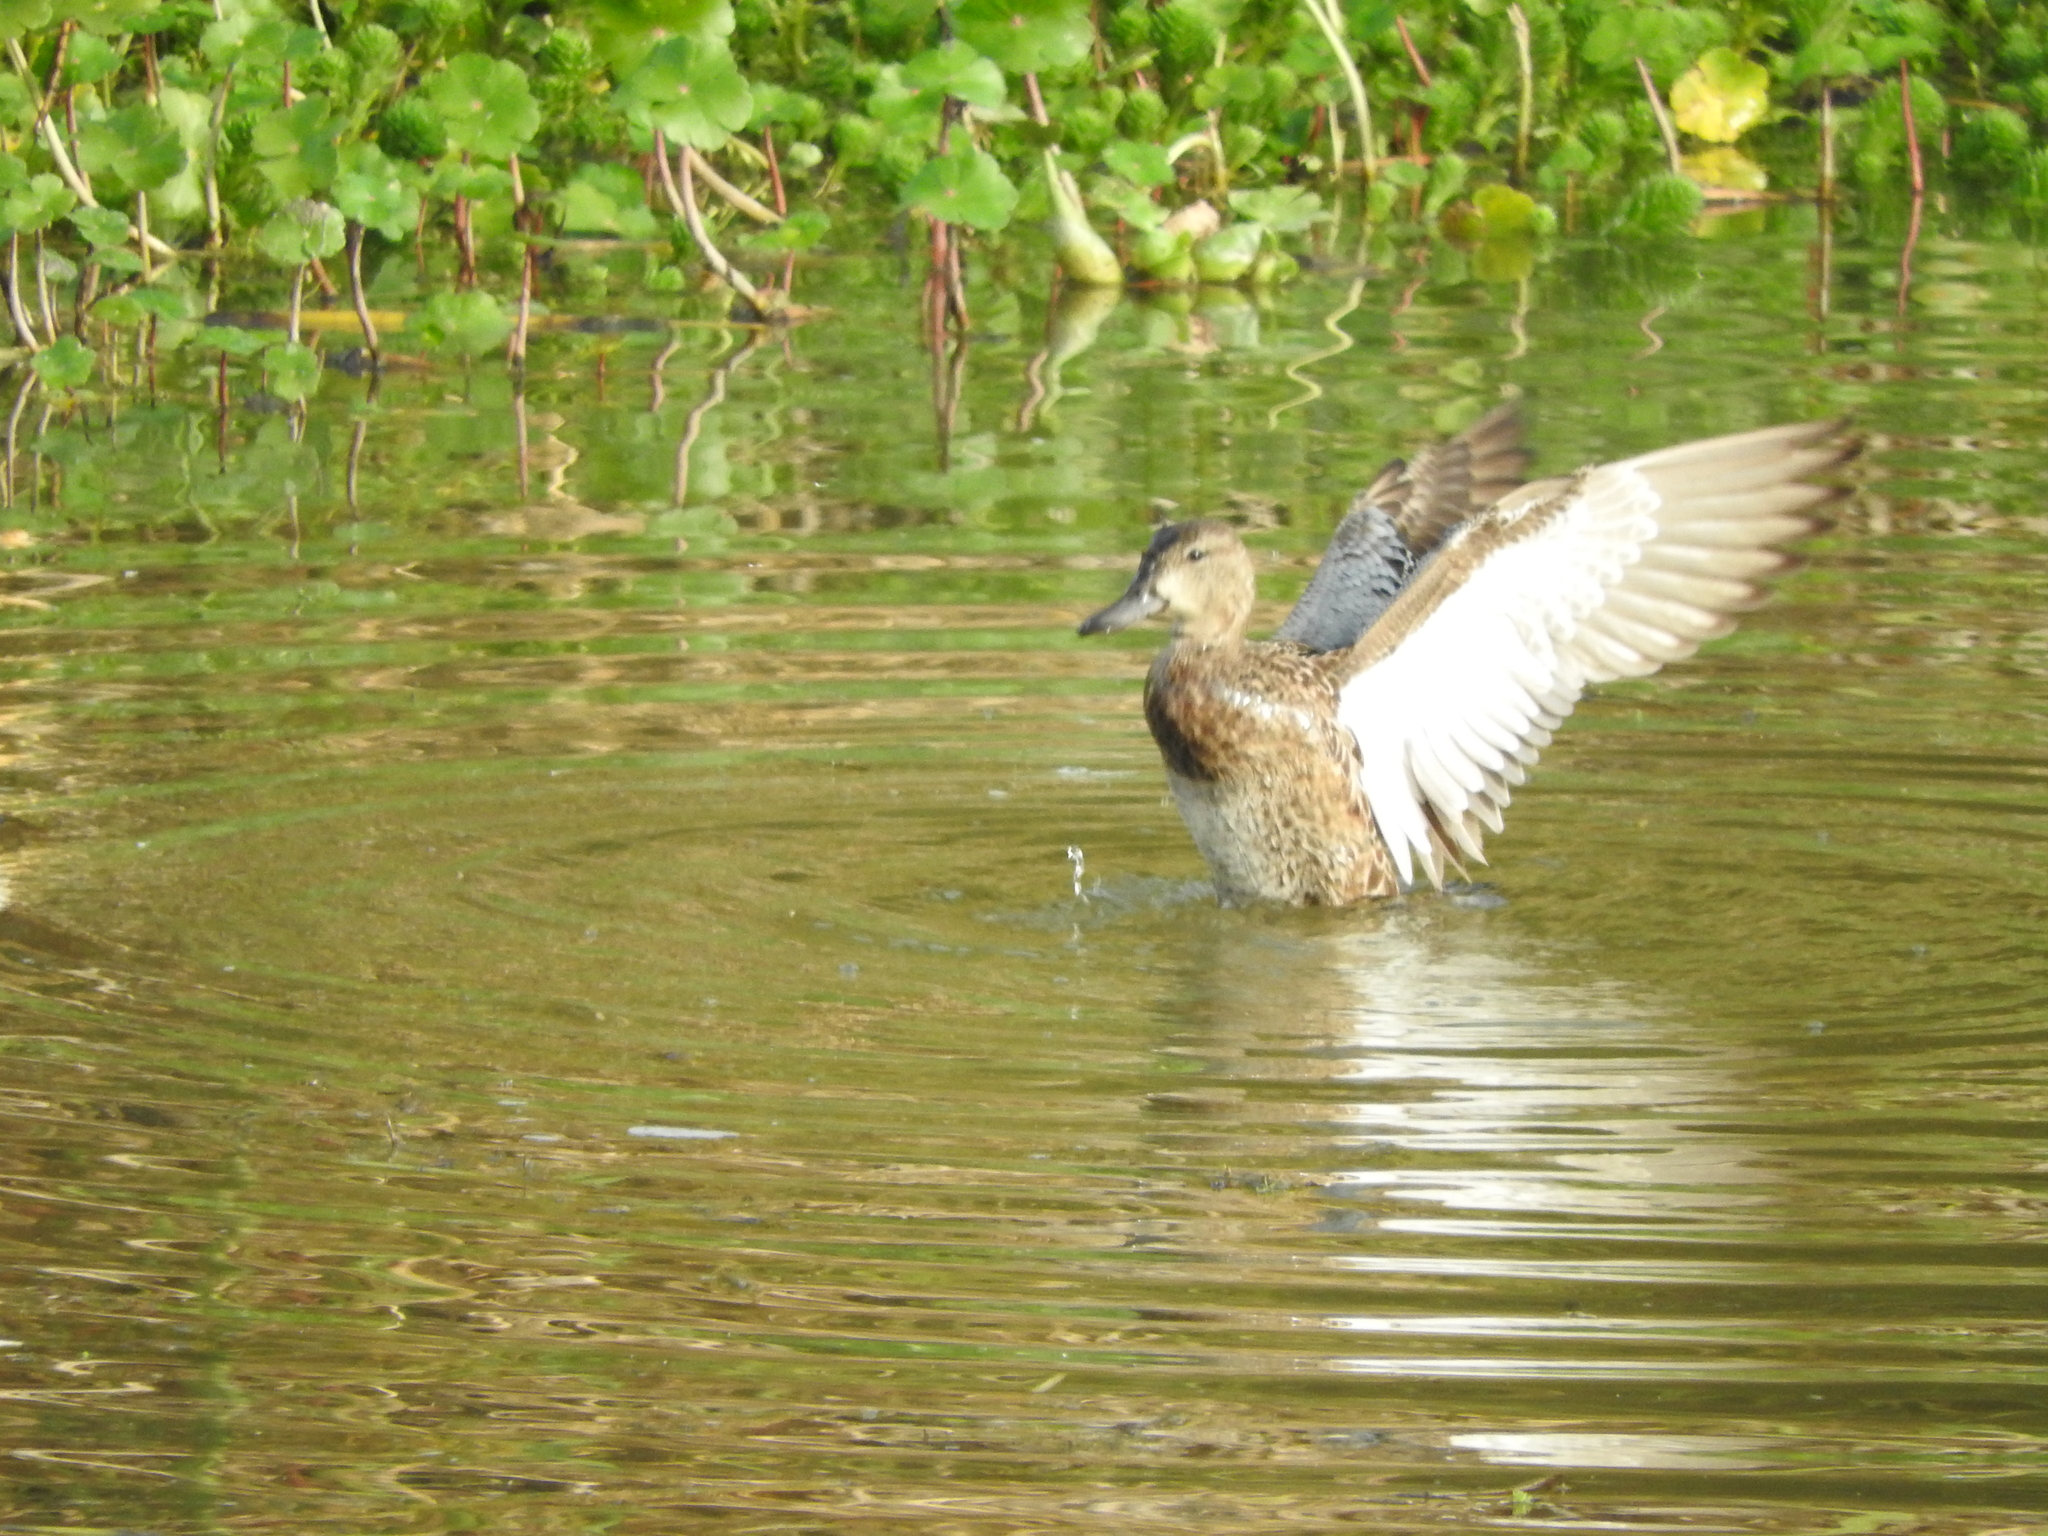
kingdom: Animalia
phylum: Chordata
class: Aves
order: Anseriformes
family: Anatidae
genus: Spatula
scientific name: Spatula discors
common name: Blue-winged teal
